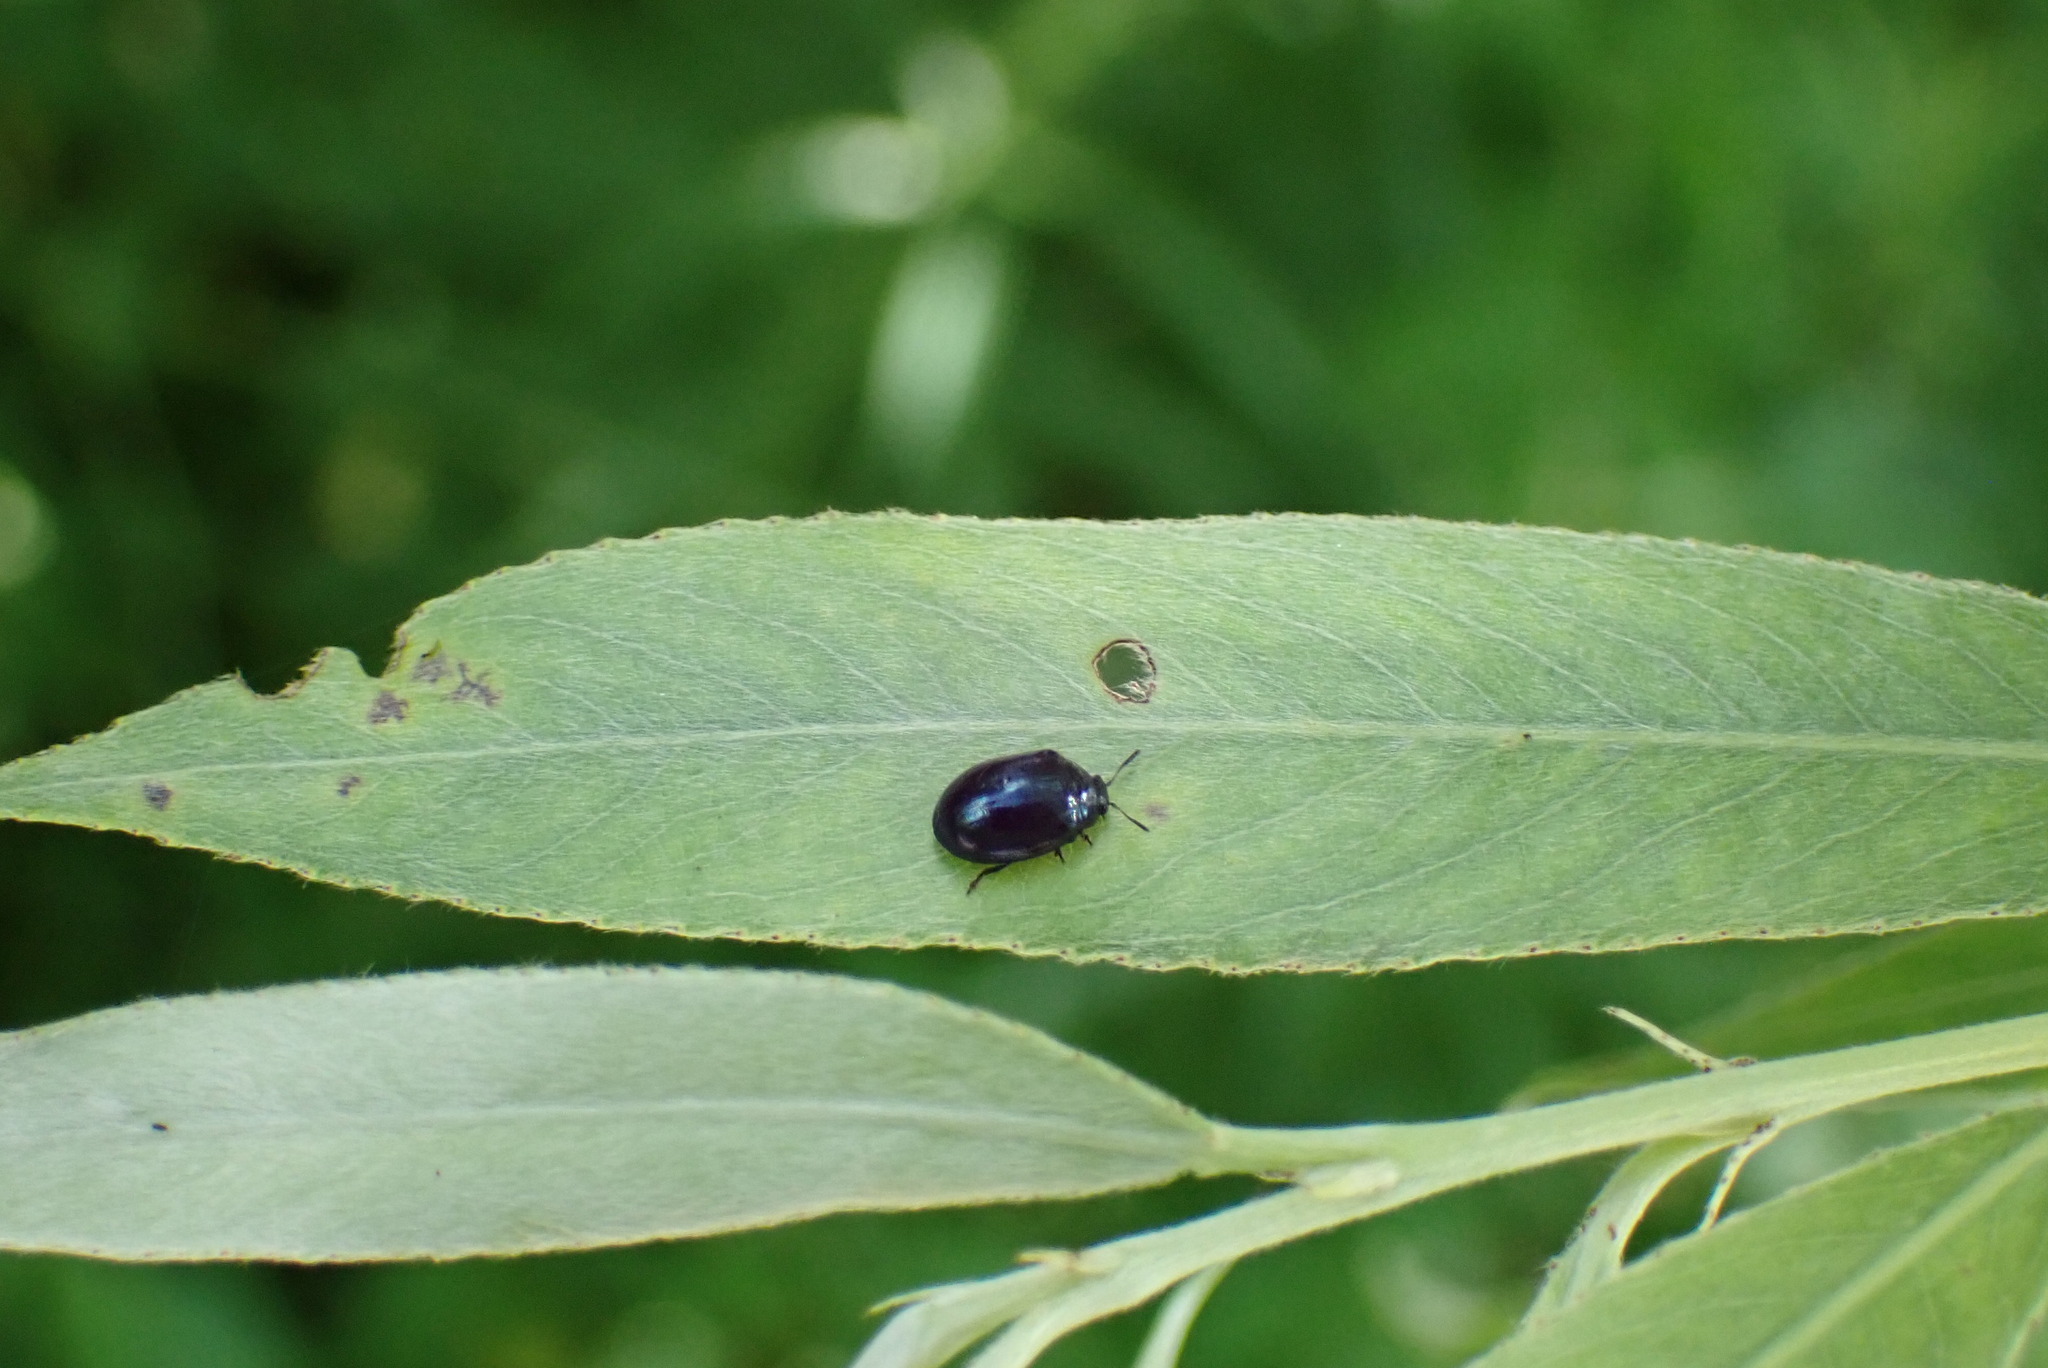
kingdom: Animalia
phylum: Arthropoda
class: Insecta
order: Coleoptera
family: Chrysomelidae
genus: Plagiodera
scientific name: Plagiodera versicolora
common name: Imported willow leaf beetle
